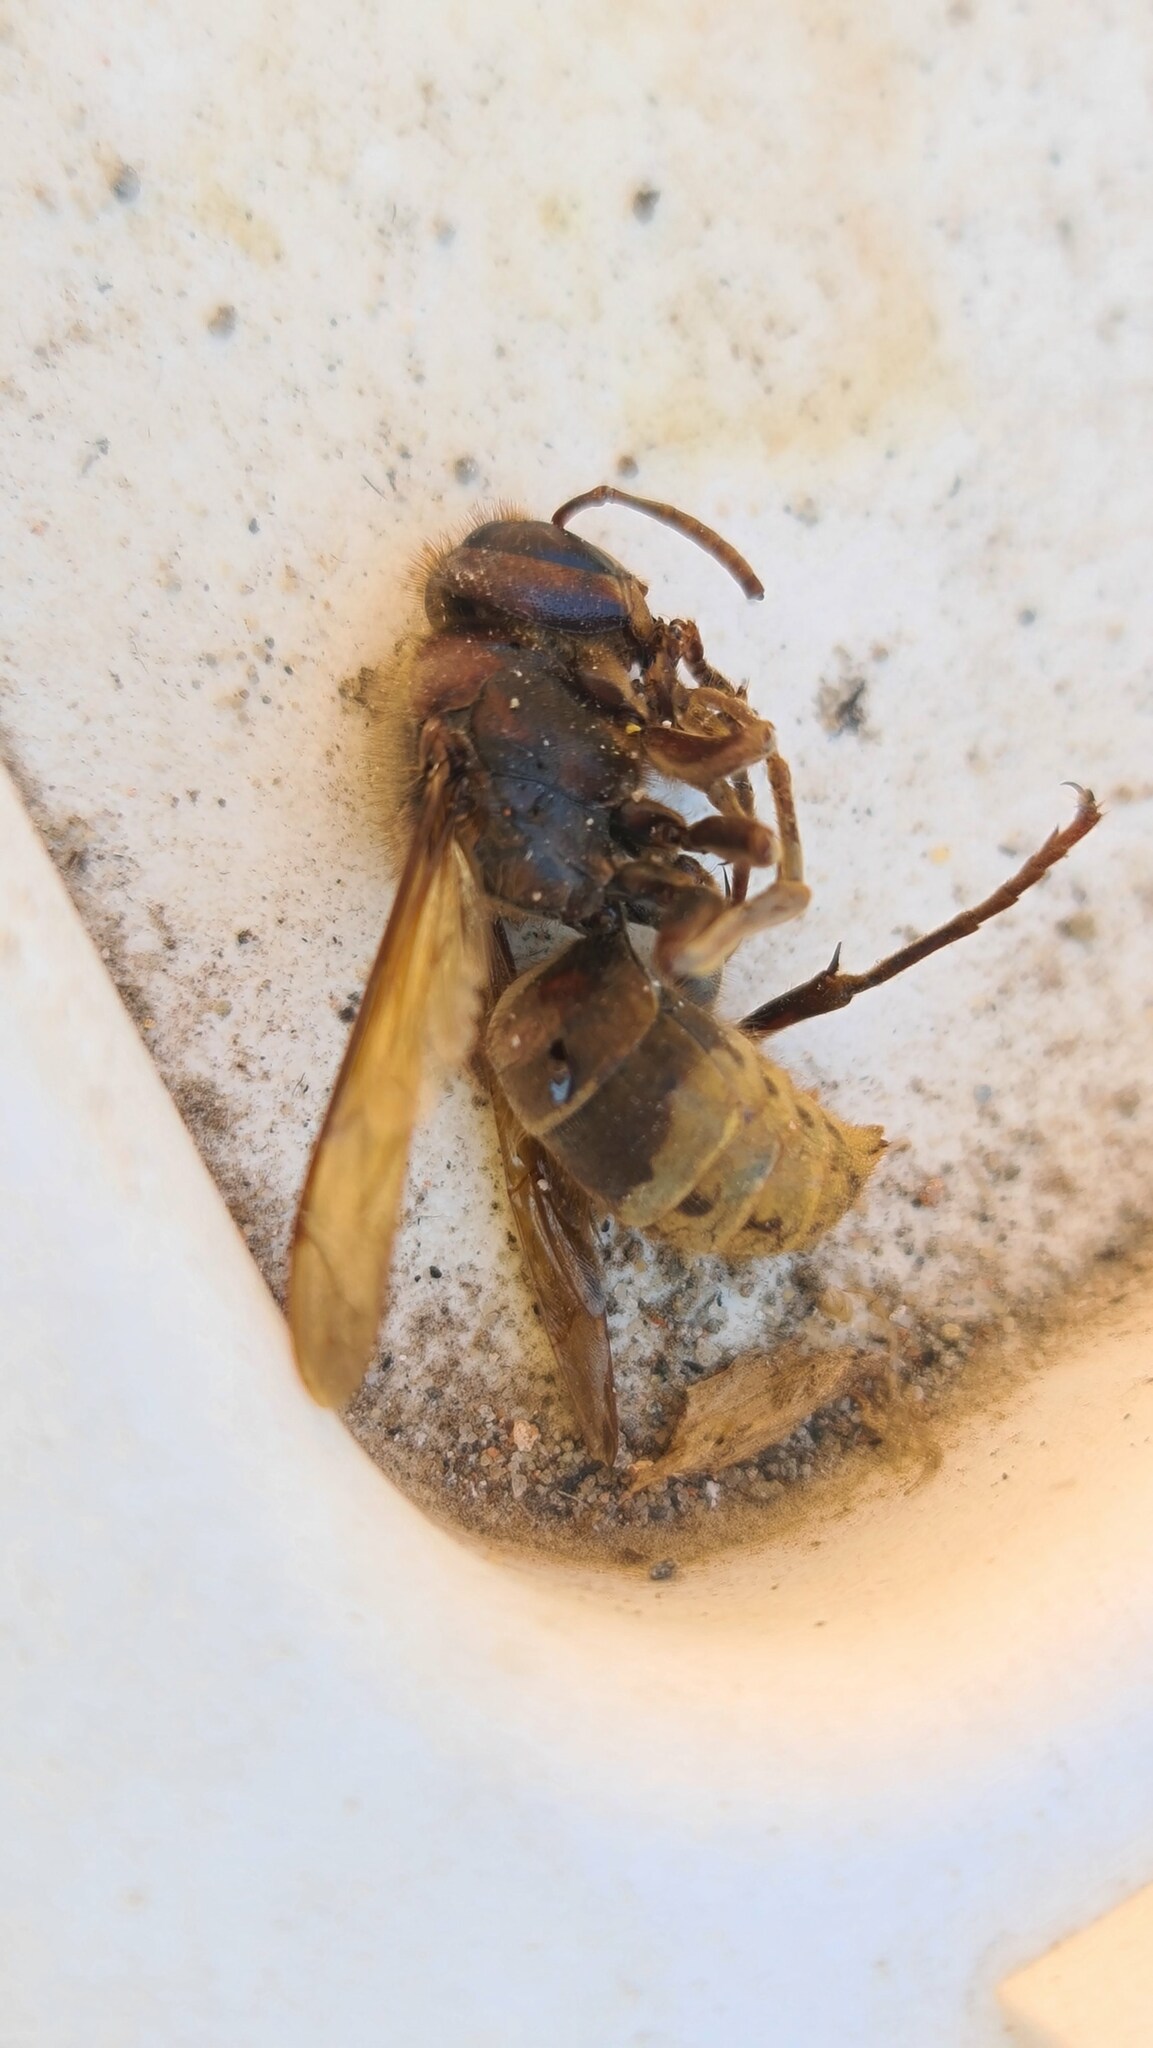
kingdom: Animalia
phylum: Arthropoda
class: Insecta
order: Hymenoptera
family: Vespidae
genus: Vespa
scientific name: Vespa crabro
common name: Hornet
